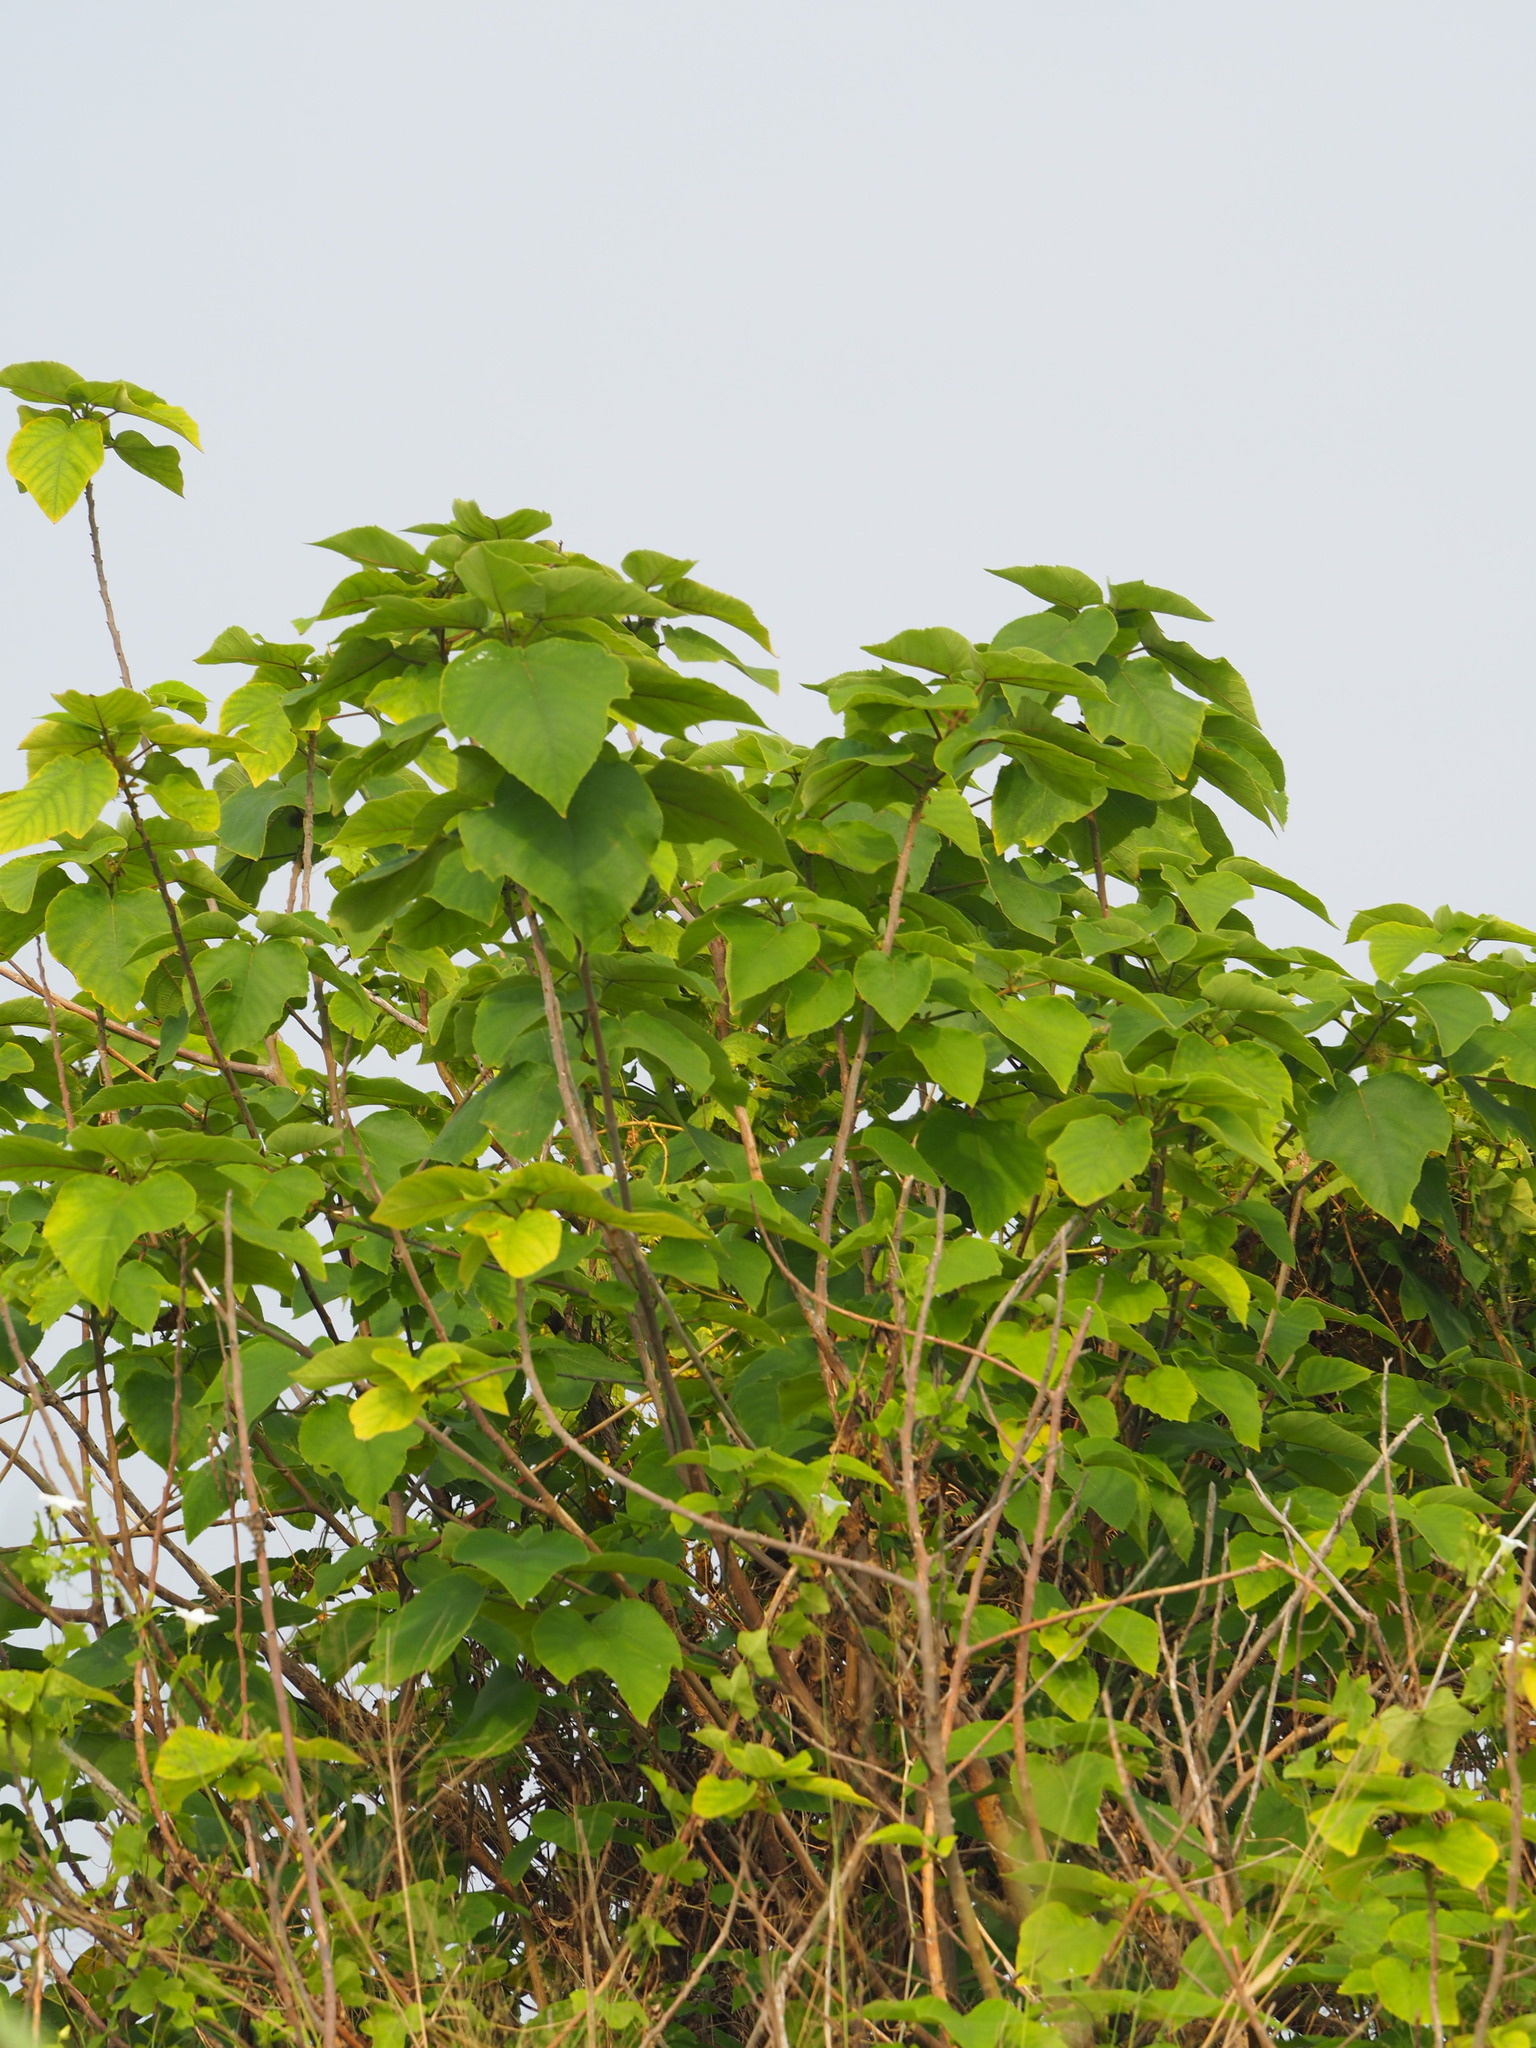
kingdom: Plantae
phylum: Tracheophyta
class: Magnoliopsida
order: Rosales
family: Moraceae
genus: Broussonetia
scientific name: Broussonetia papyrifera
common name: Paper mulberry
